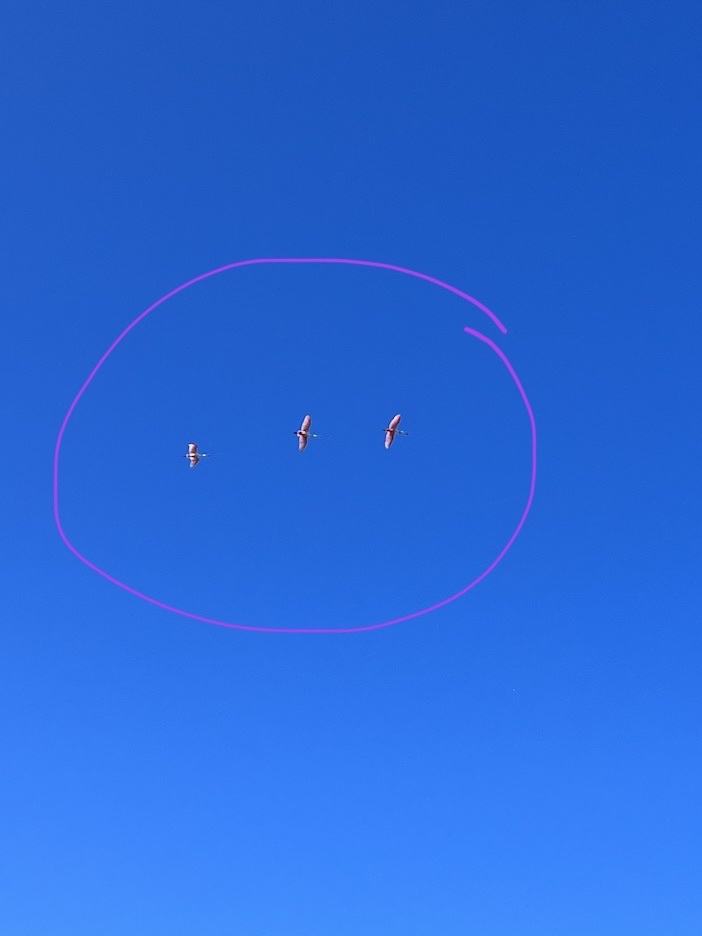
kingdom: Animalia
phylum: Chordata
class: Aves
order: Pelecaniformes
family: Threskiornithidae
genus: Platalea
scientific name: Platalea ajaja
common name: Roseate spoonbill
